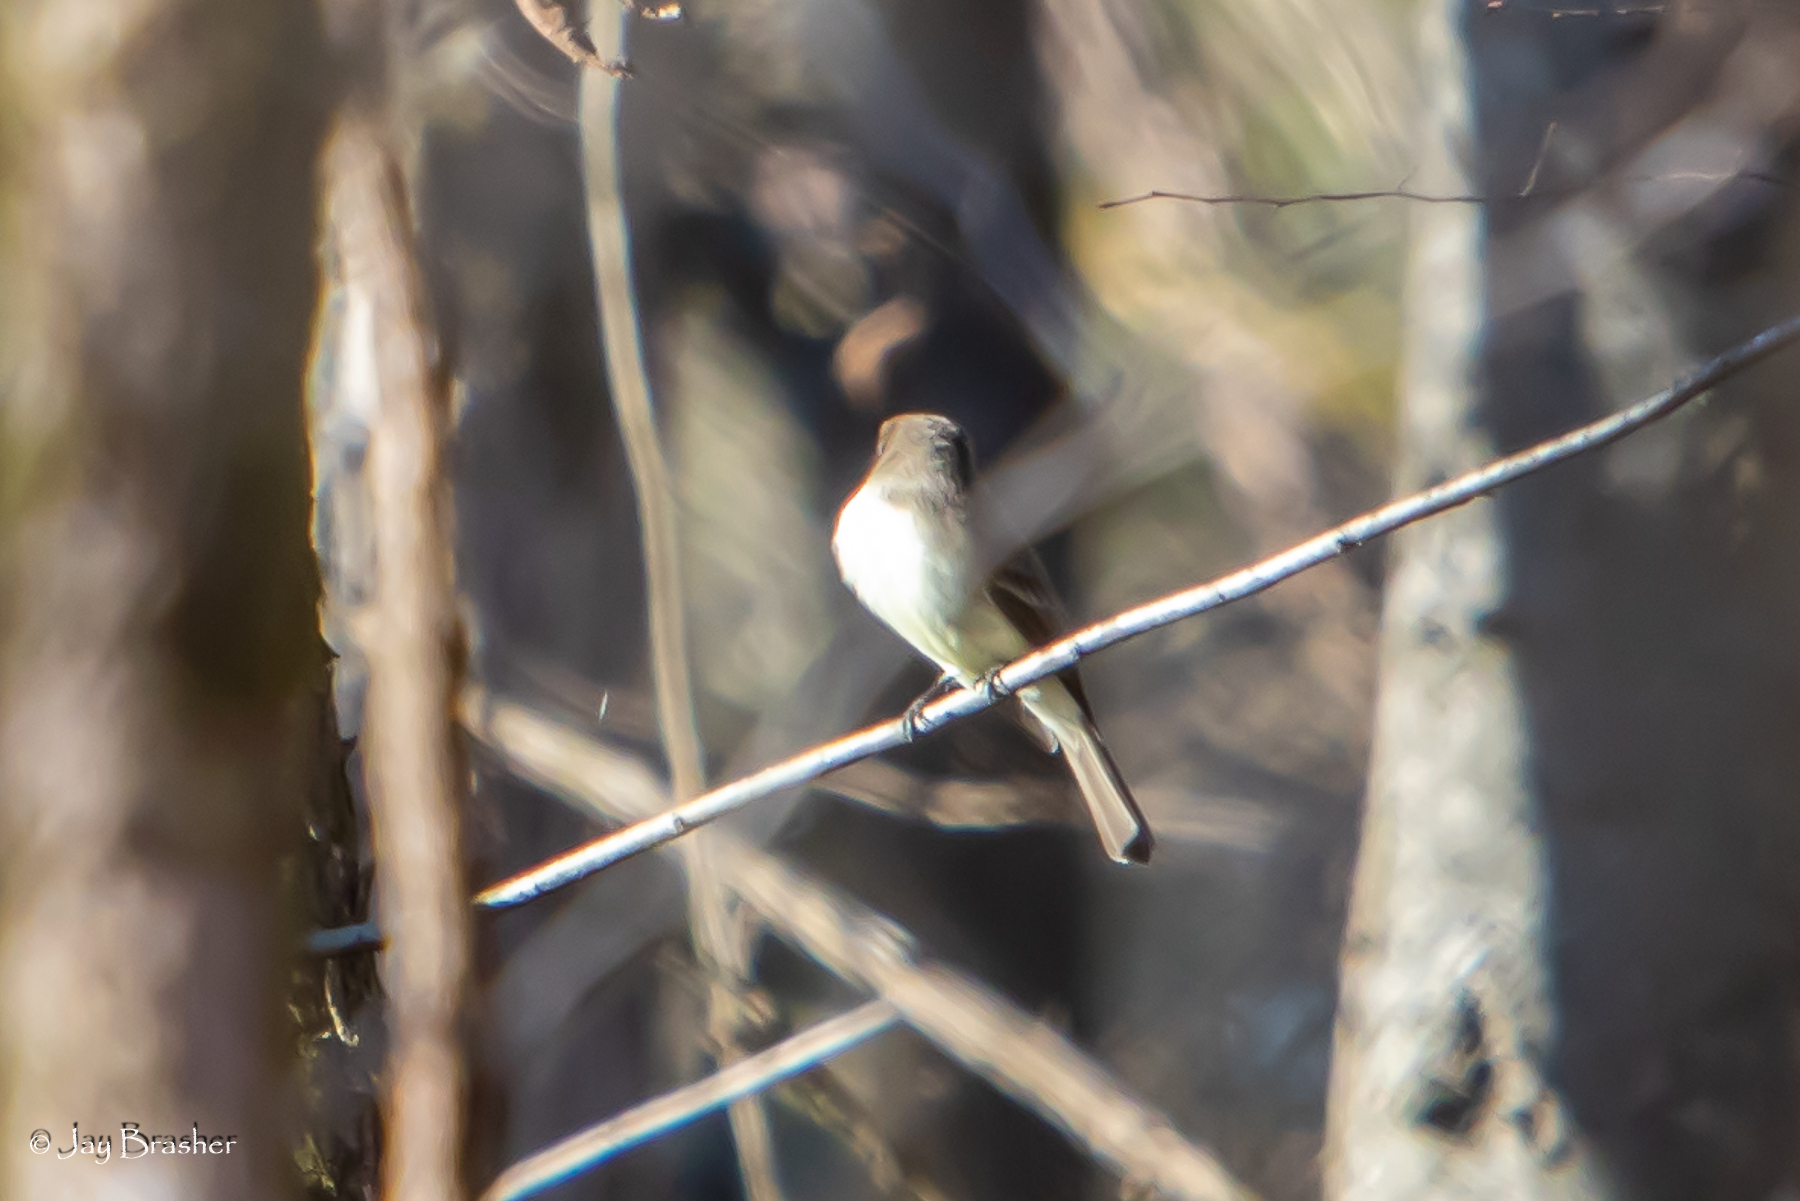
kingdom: Animalia
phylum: Chordata
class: Aves
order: Passeriformes
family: Tyrannidae
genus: Sayornis
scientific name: Sayornis phoebe
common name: Eastern phoebe
